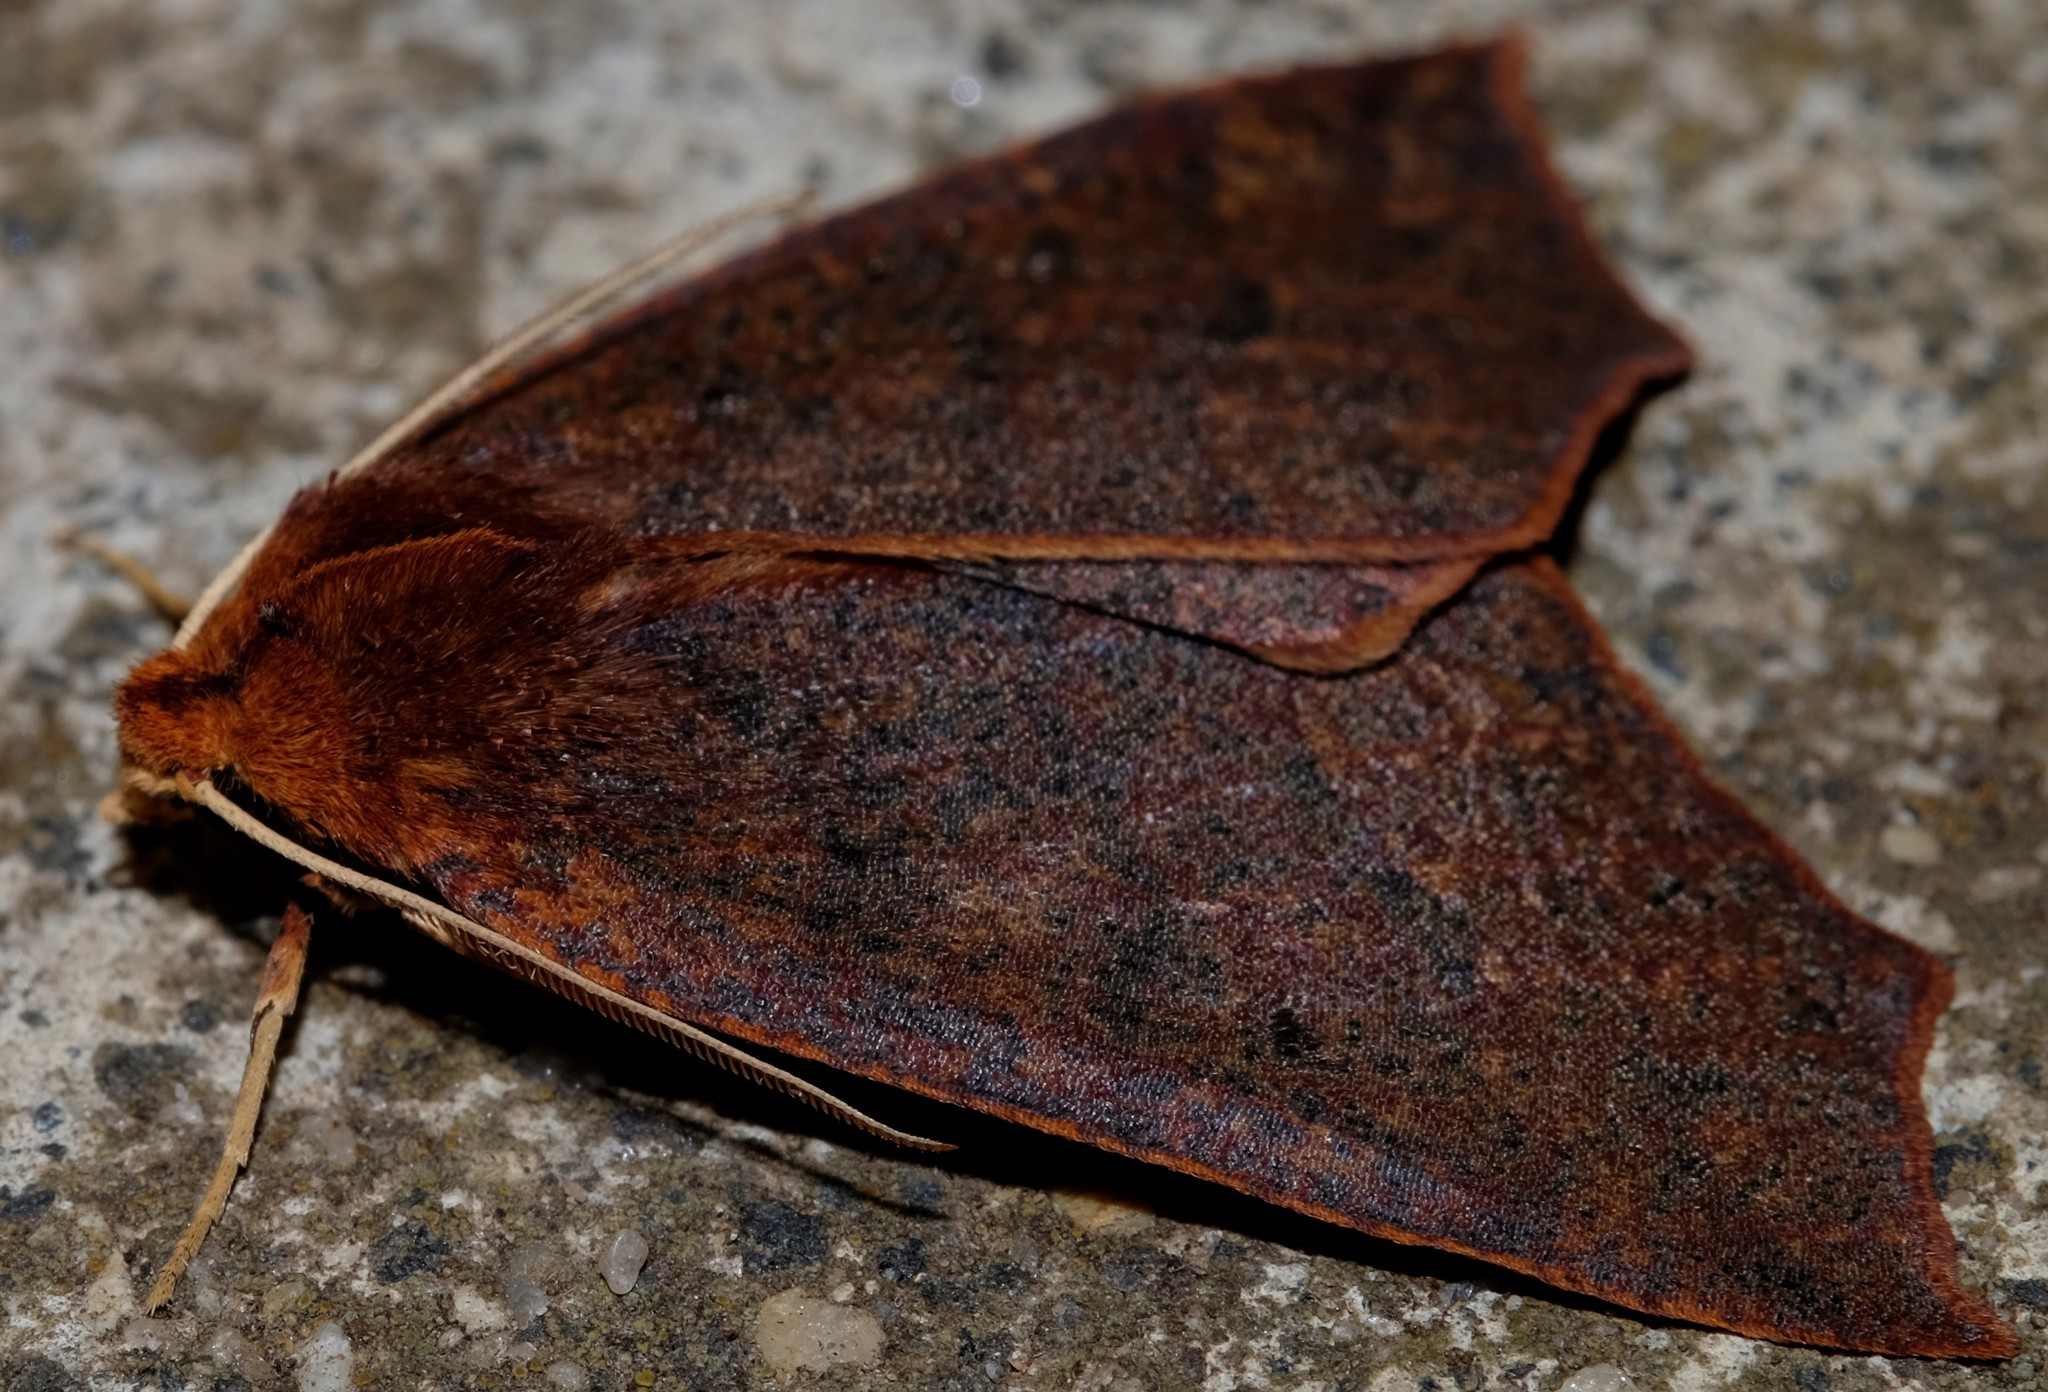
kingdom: Animalia
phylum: Arthropoda
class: Insecta
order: Lepidoptera
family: Geometridae
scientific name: Geometridae
